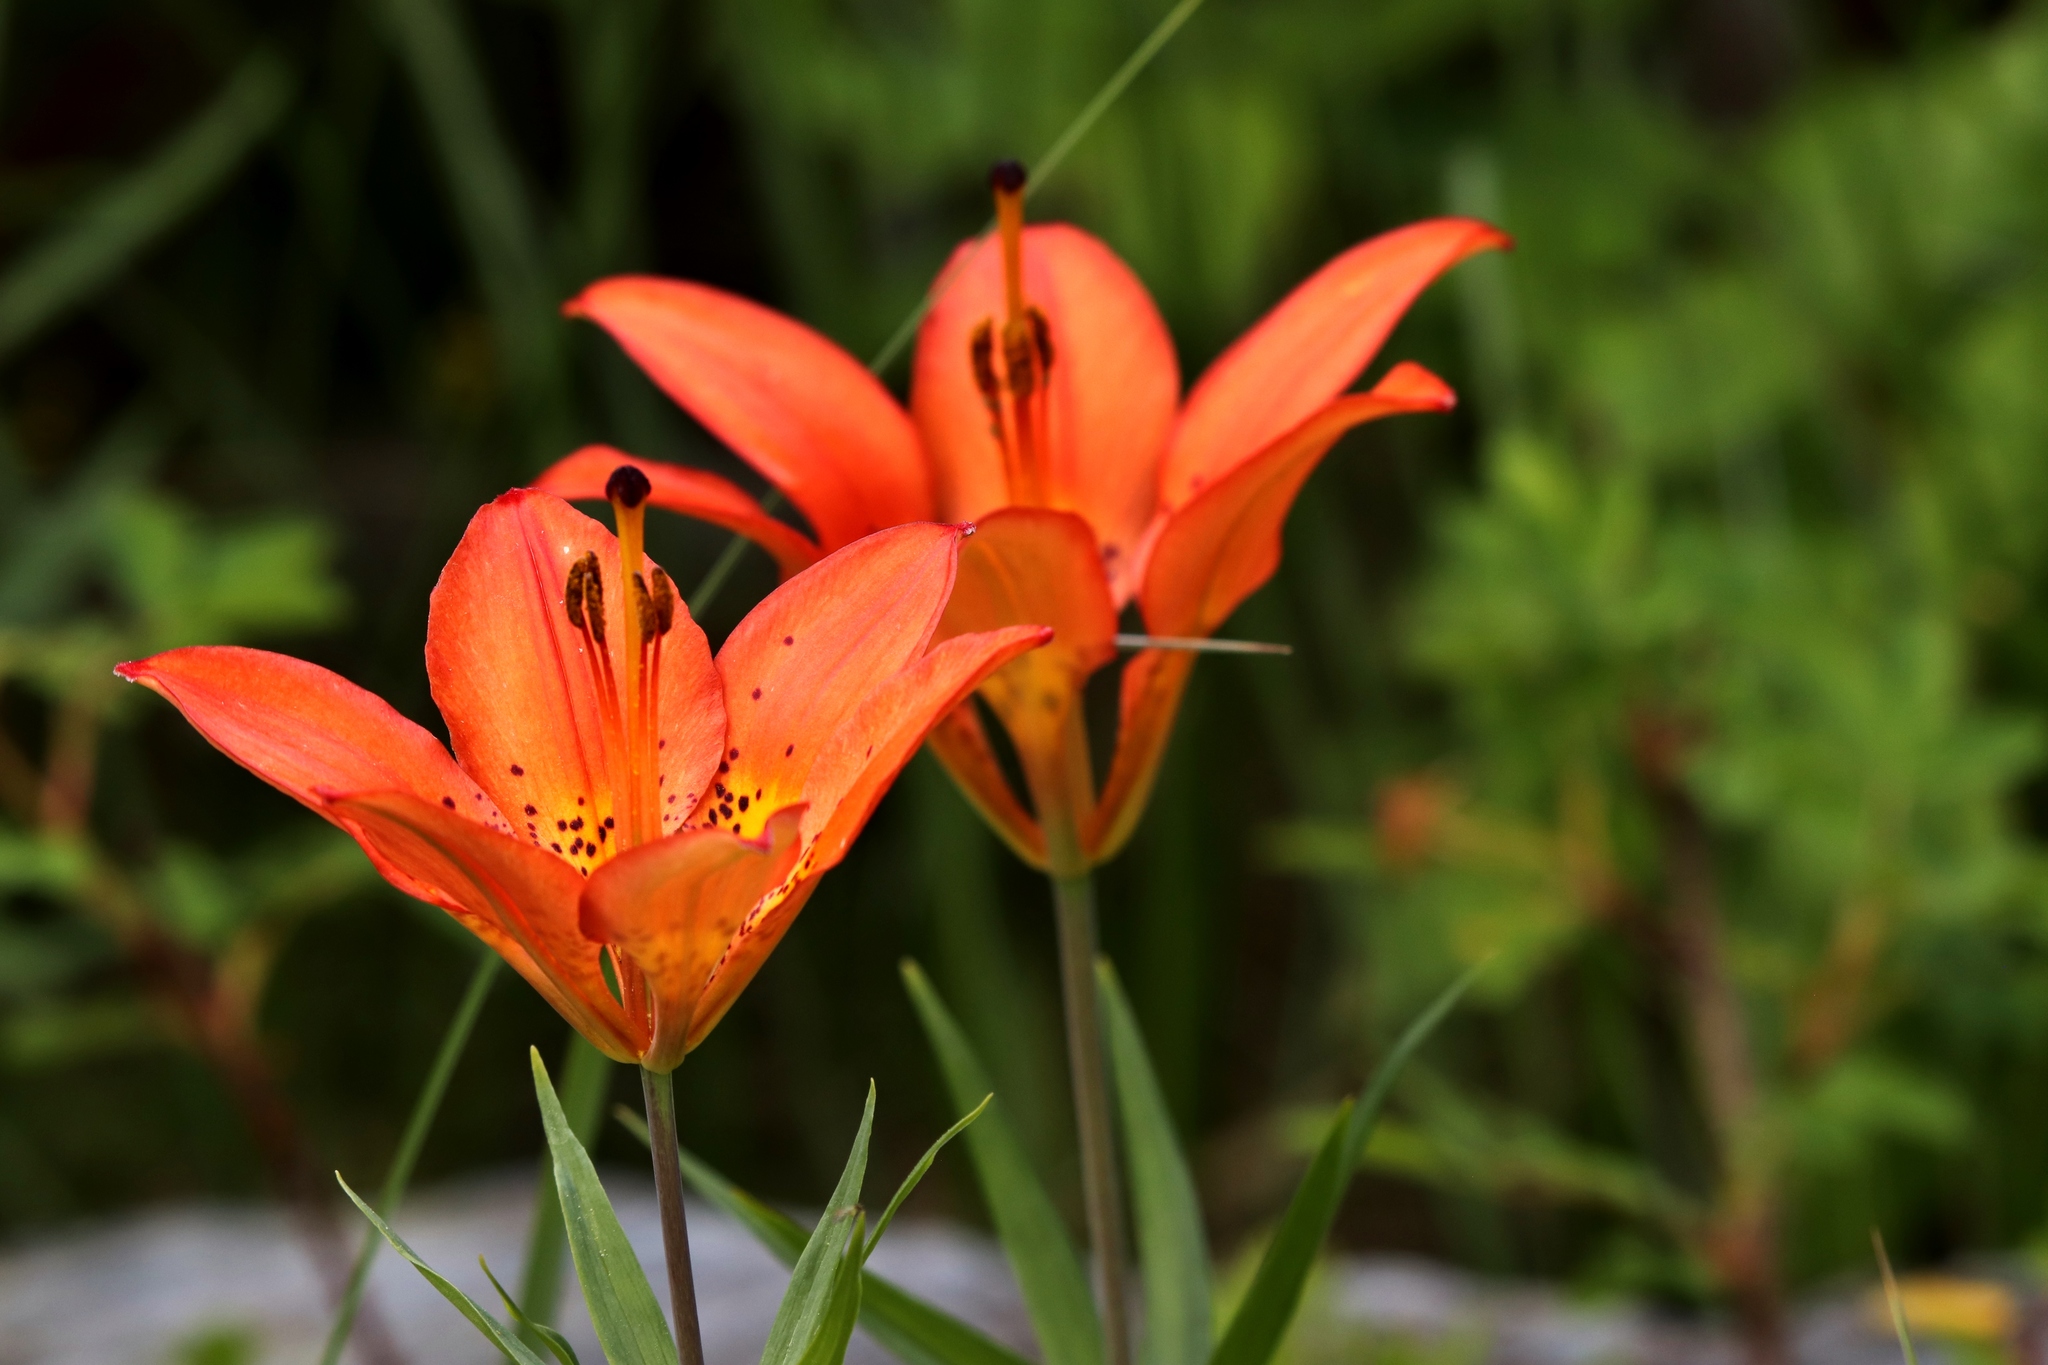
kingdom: Plantae
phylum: Tracheophyta
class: Liliopsida
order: Liliales
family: Liliaceae
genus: Lilium
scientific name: Lilium philadelphicum
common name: Red lily
